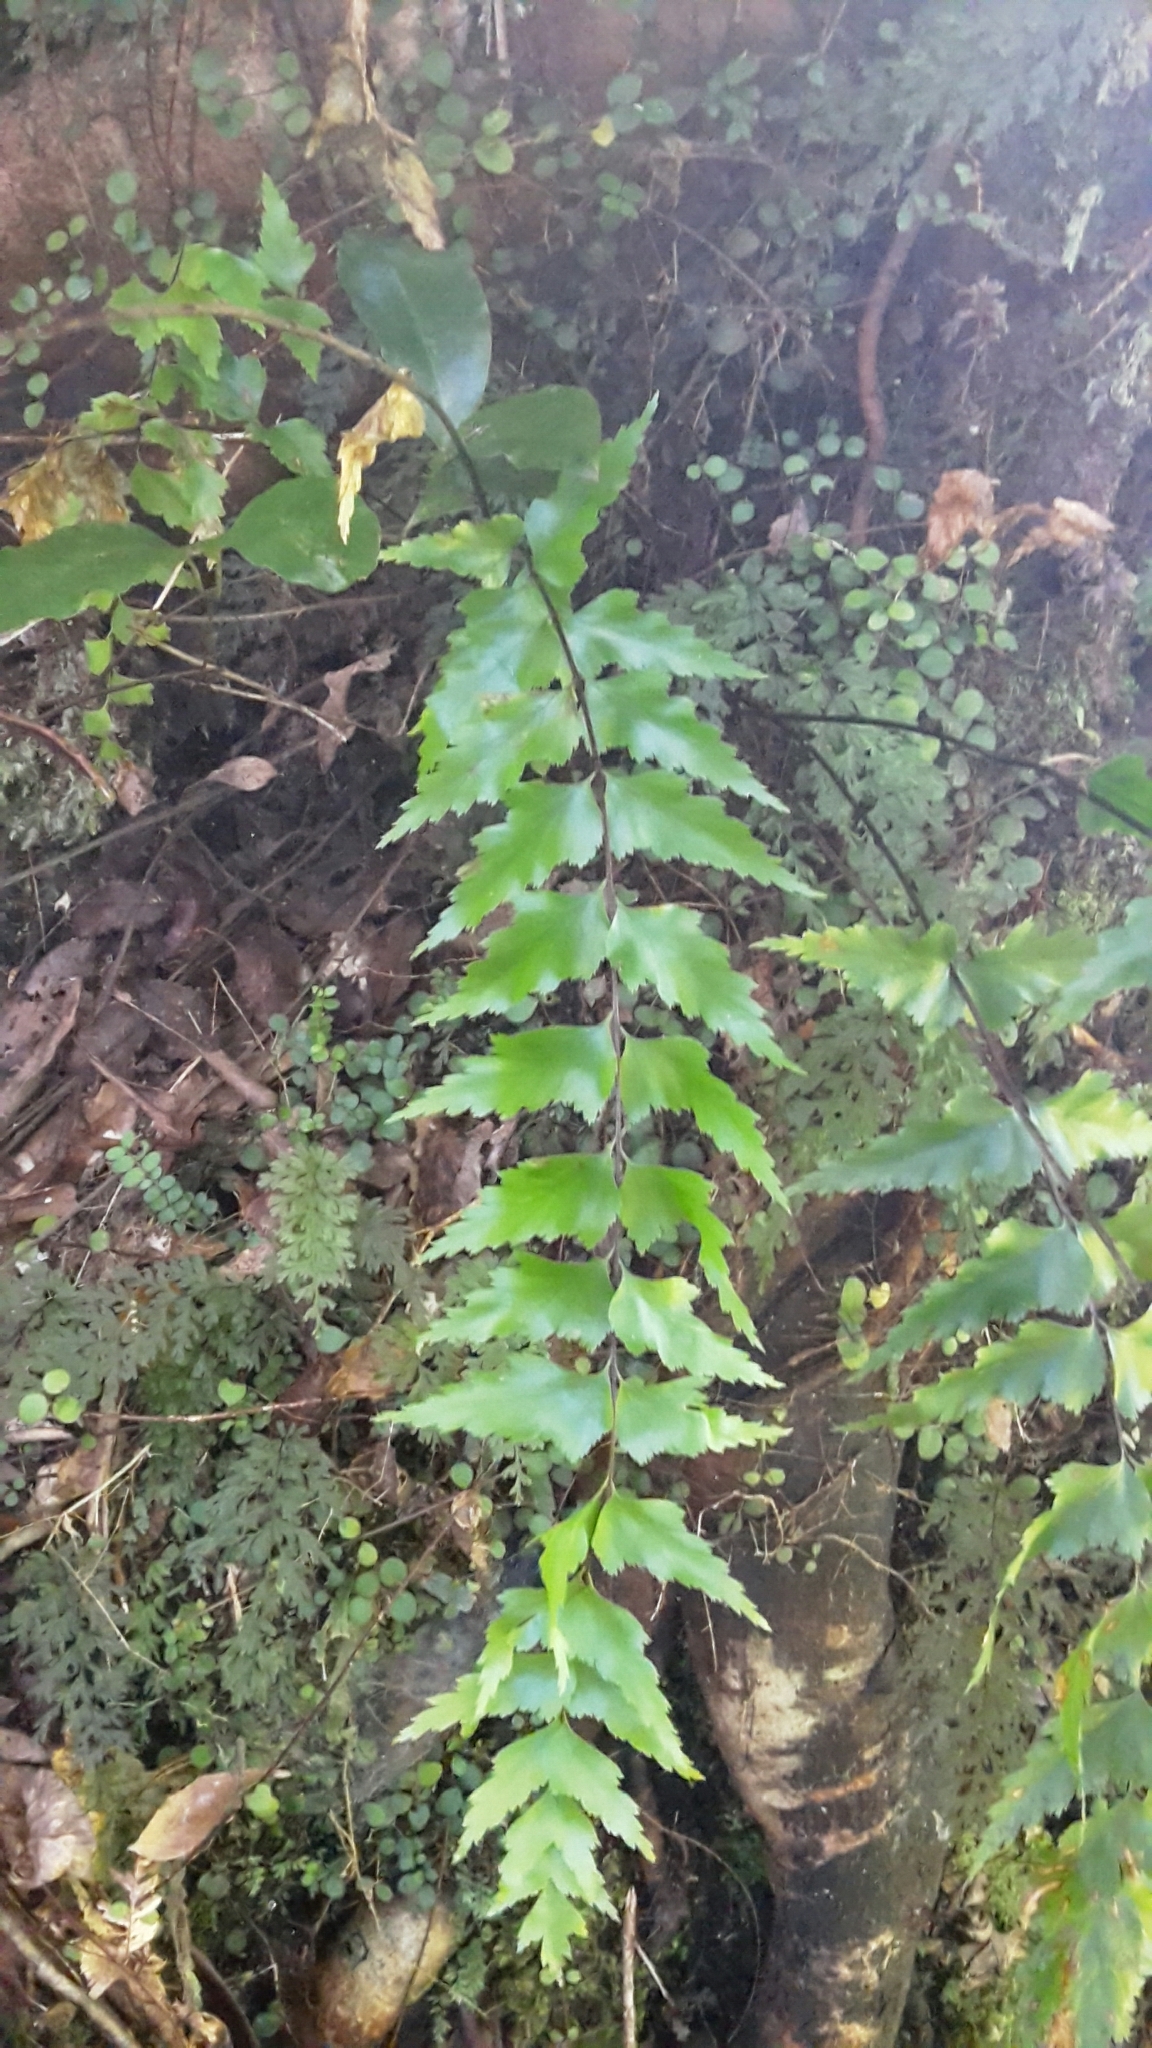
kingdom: Plantae
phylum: Tracheophyta
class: Polypodiopsida
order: Polypodiales
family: Aspleniaceae
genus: Asplenium
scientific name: Asplenium polyodon
